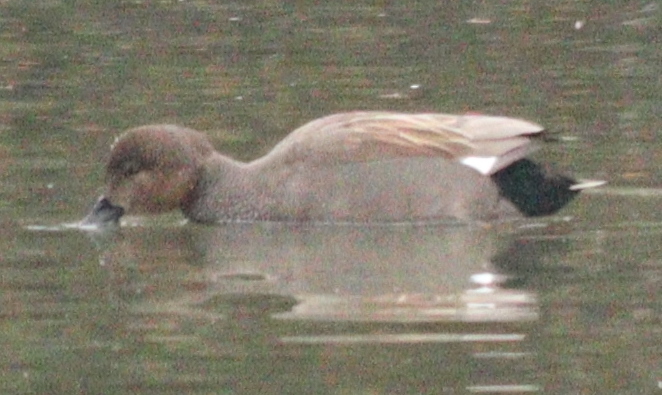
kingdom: Animalia
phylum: Chordata
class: Aves
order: Anseriformes
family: Anatidae
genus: Mareca
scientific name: Mareca strepera
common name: Gadwall
